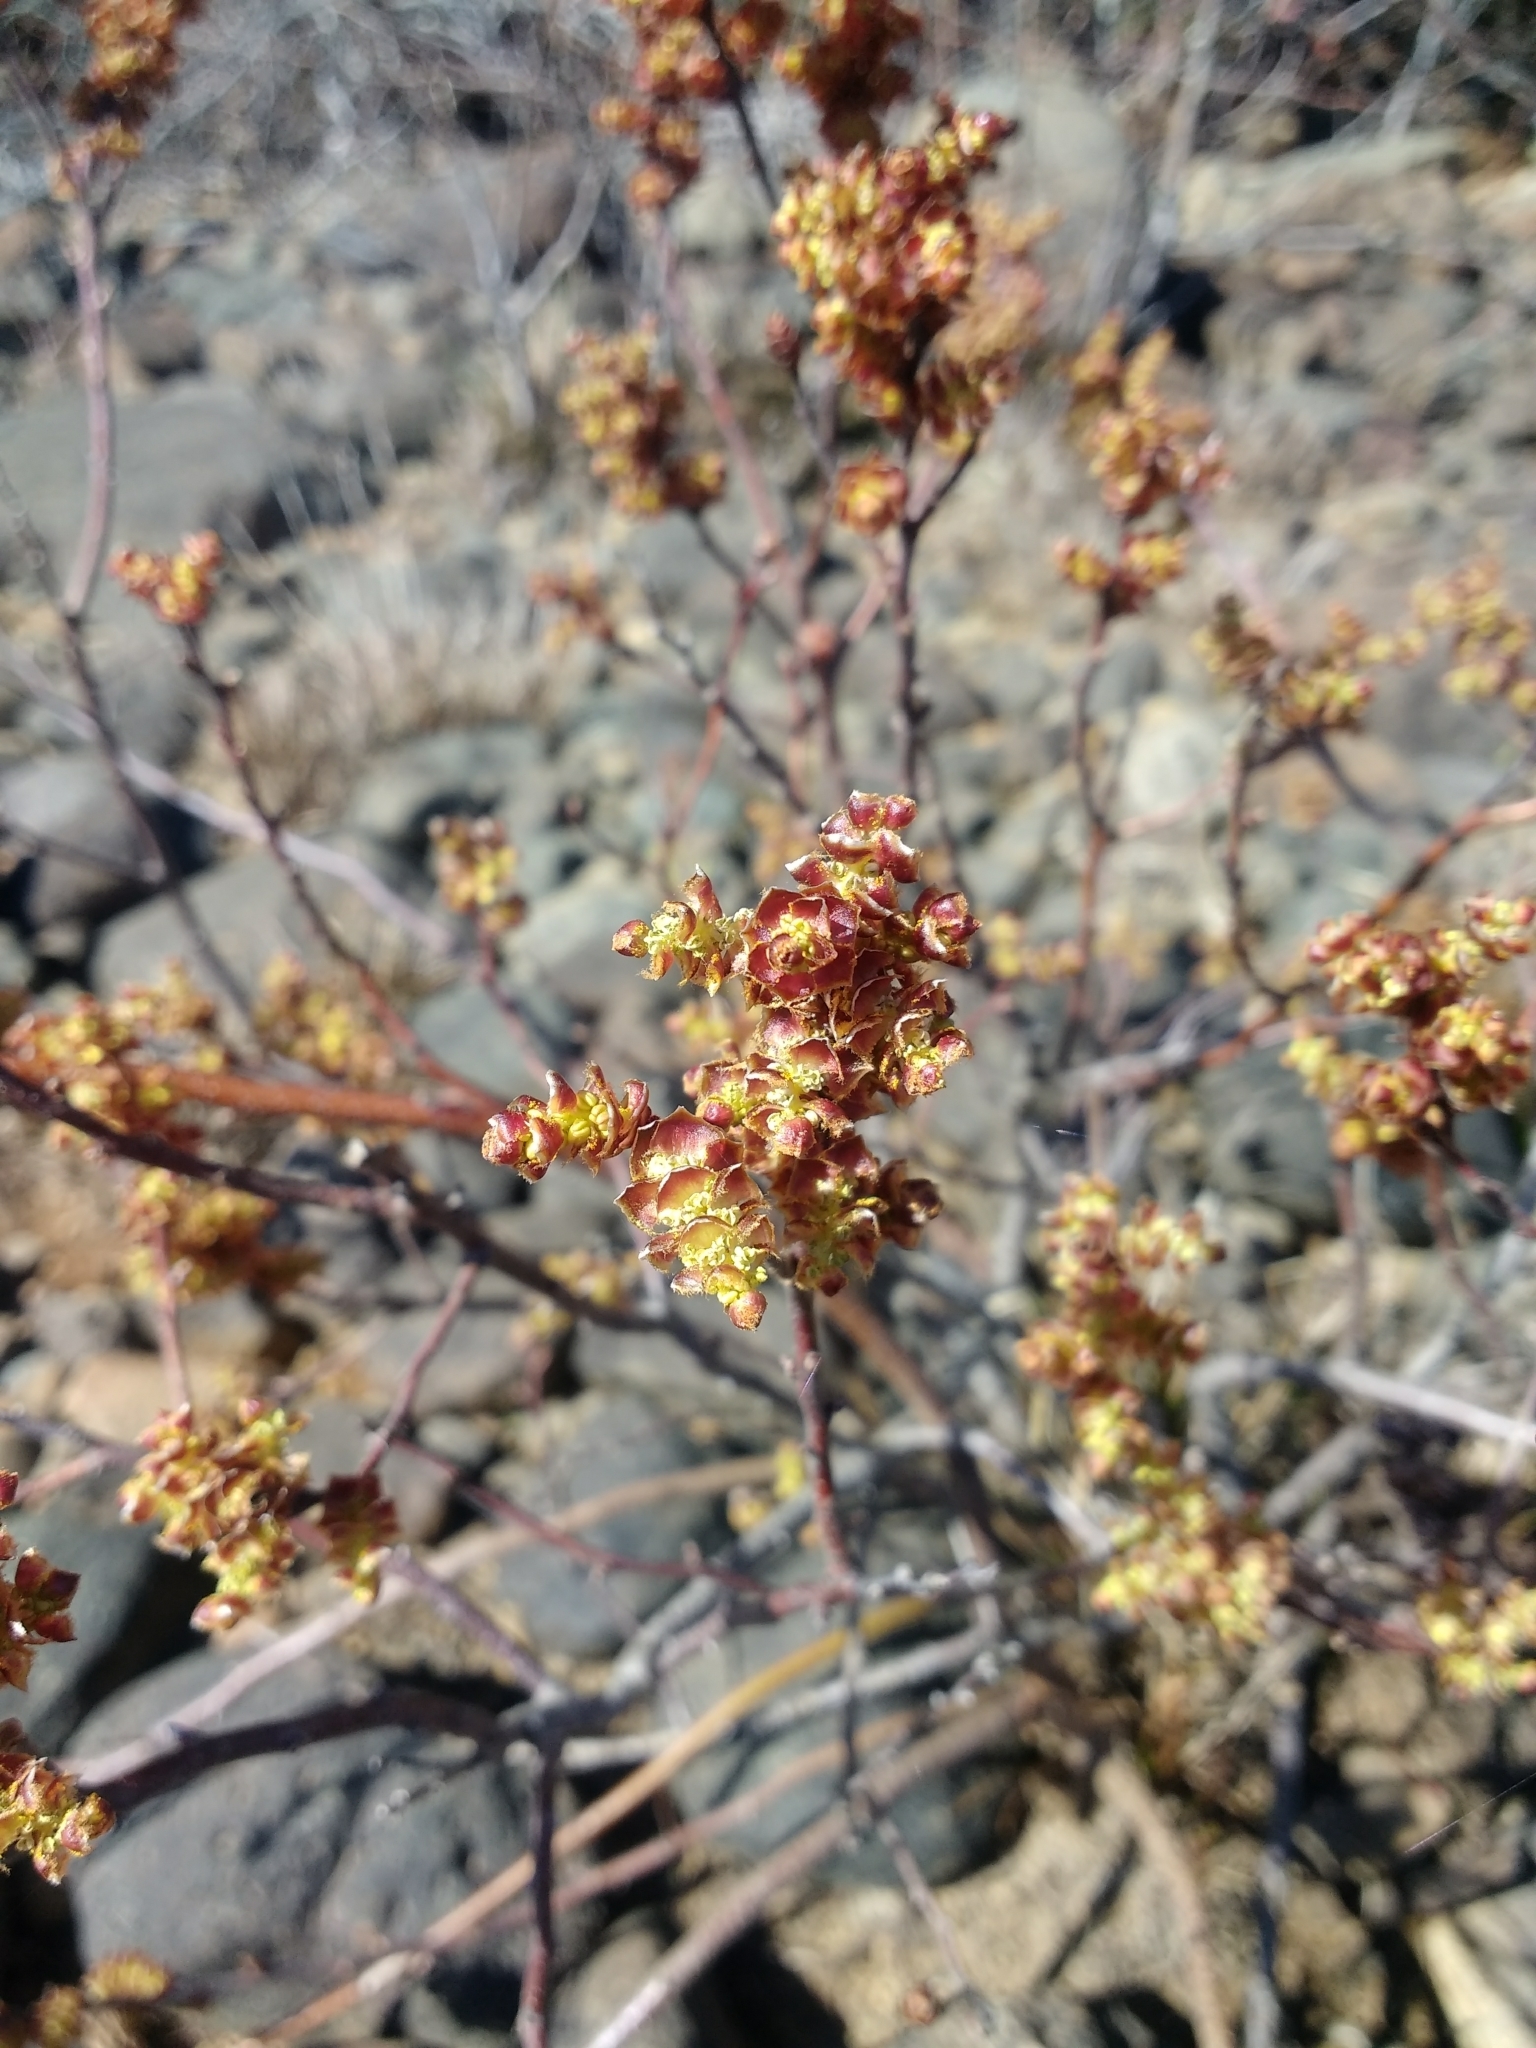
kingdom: Plantae
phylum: Tracheophyta
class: Magnoliopsida
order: Fagales
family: Myricaceae
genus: Myrica
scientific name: Myrica gale
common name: Sweet gale
